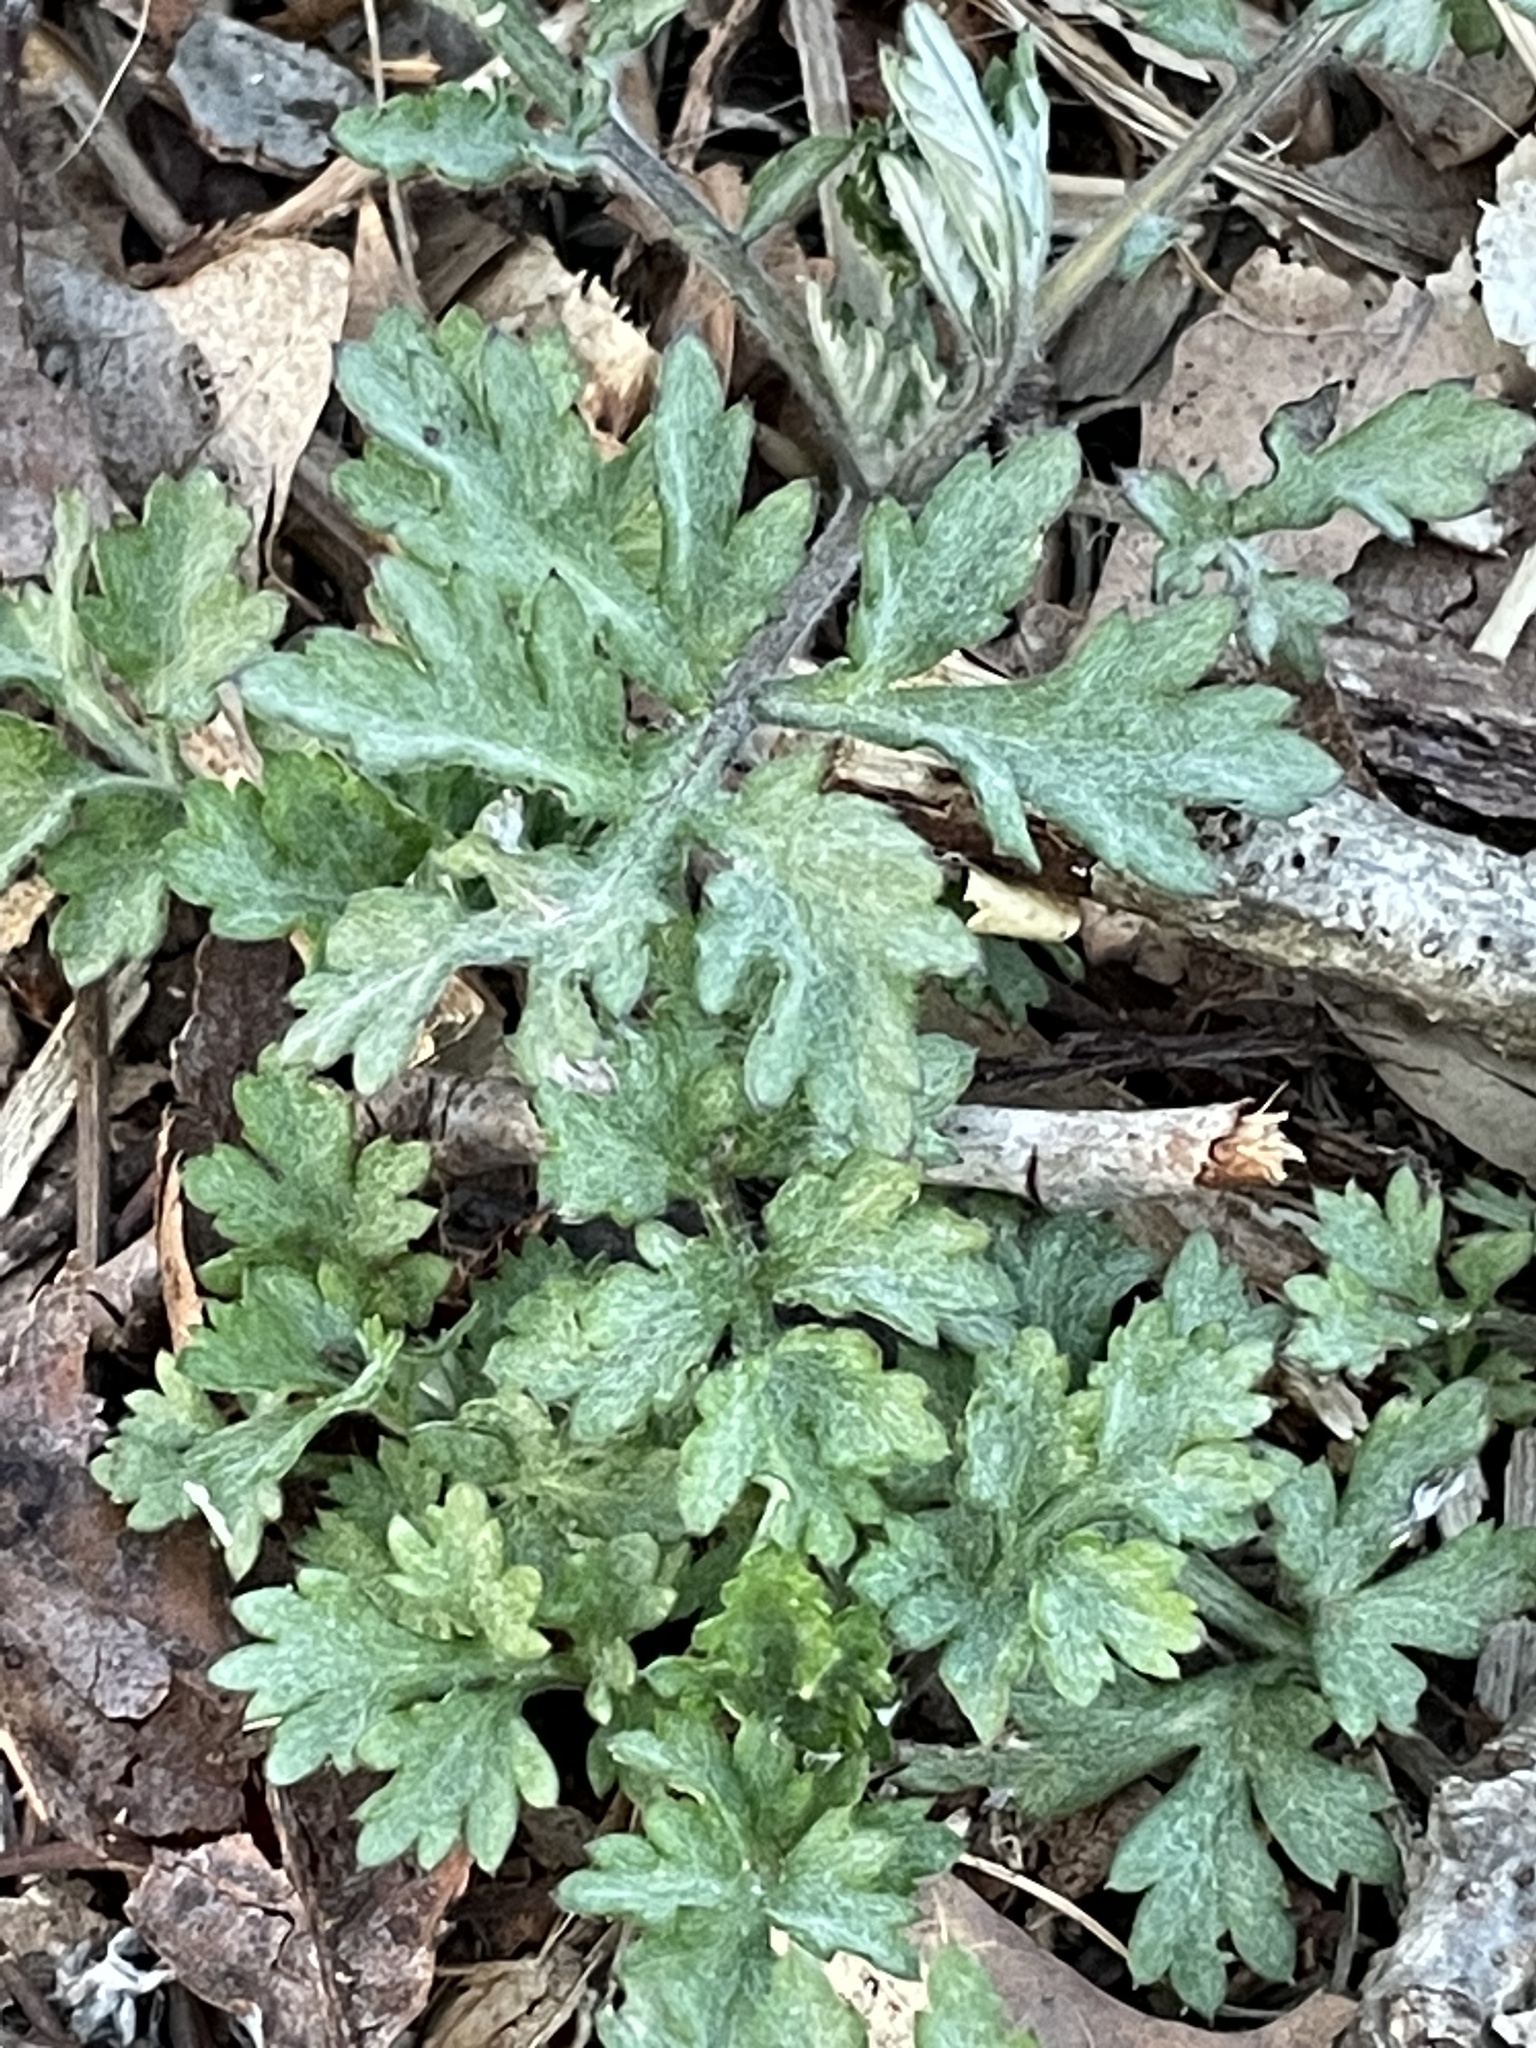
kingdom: Plantae
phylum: Tracheophyta
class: Magnoliopsida
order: Asterales
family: Asteraceae
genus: Artemisia
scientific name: Artemisia vulgaris
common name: Mugwort
